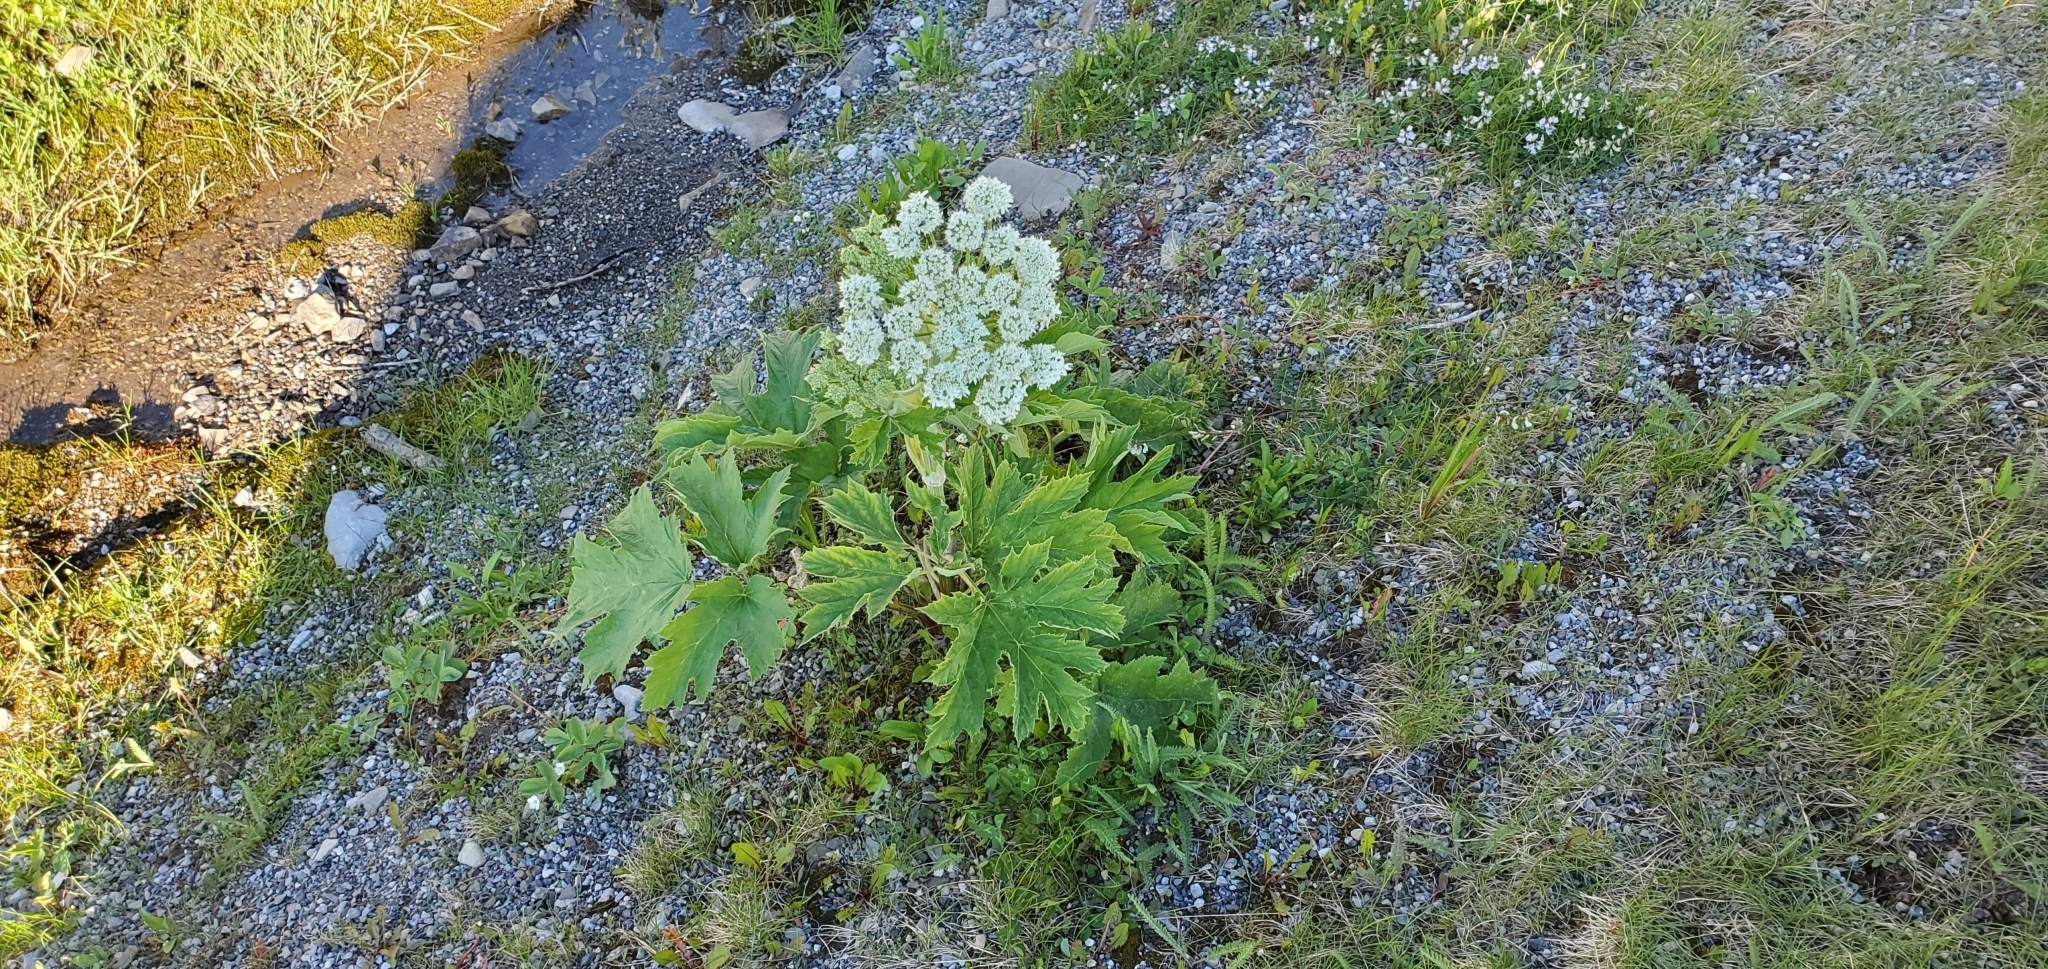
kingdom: Plantae
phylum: Tracheophyta
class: Magnoliopsida
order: Apiales
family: Apiaceae
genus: Heracleum
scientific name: Heracleum maximum
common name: American cow parsnip
